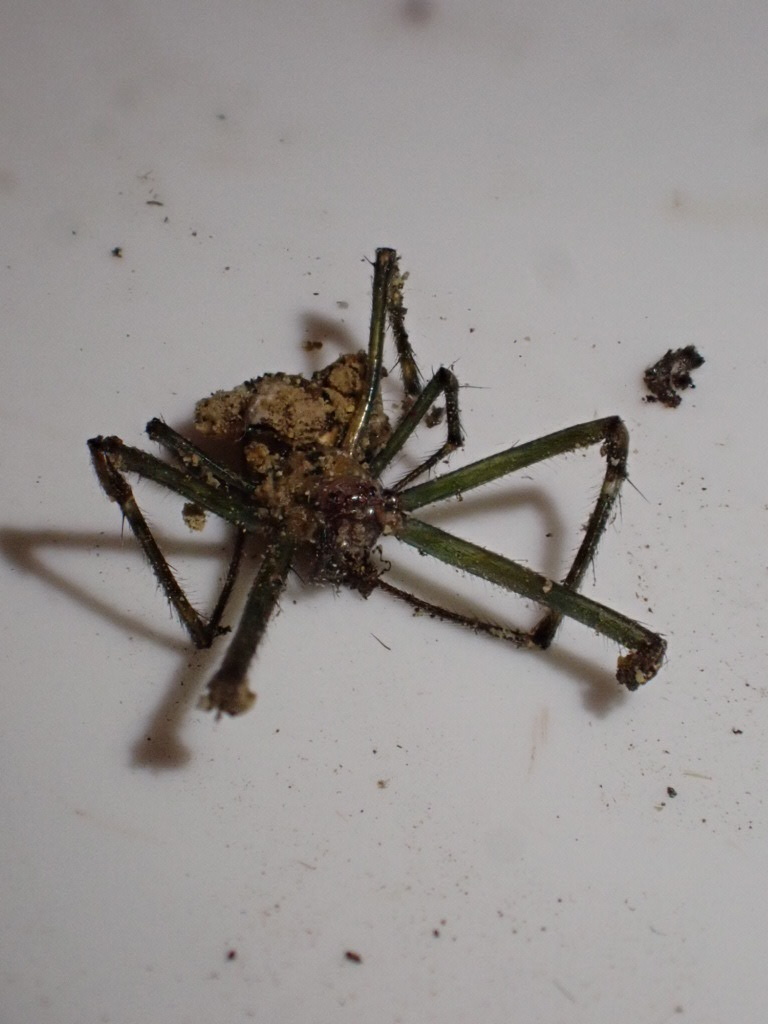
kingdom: Animalia
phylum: Arthropoda
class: Arachnida
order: Araneae
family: Tetragnathidae
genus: Leucauge
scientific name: Leucauge dromedaria
